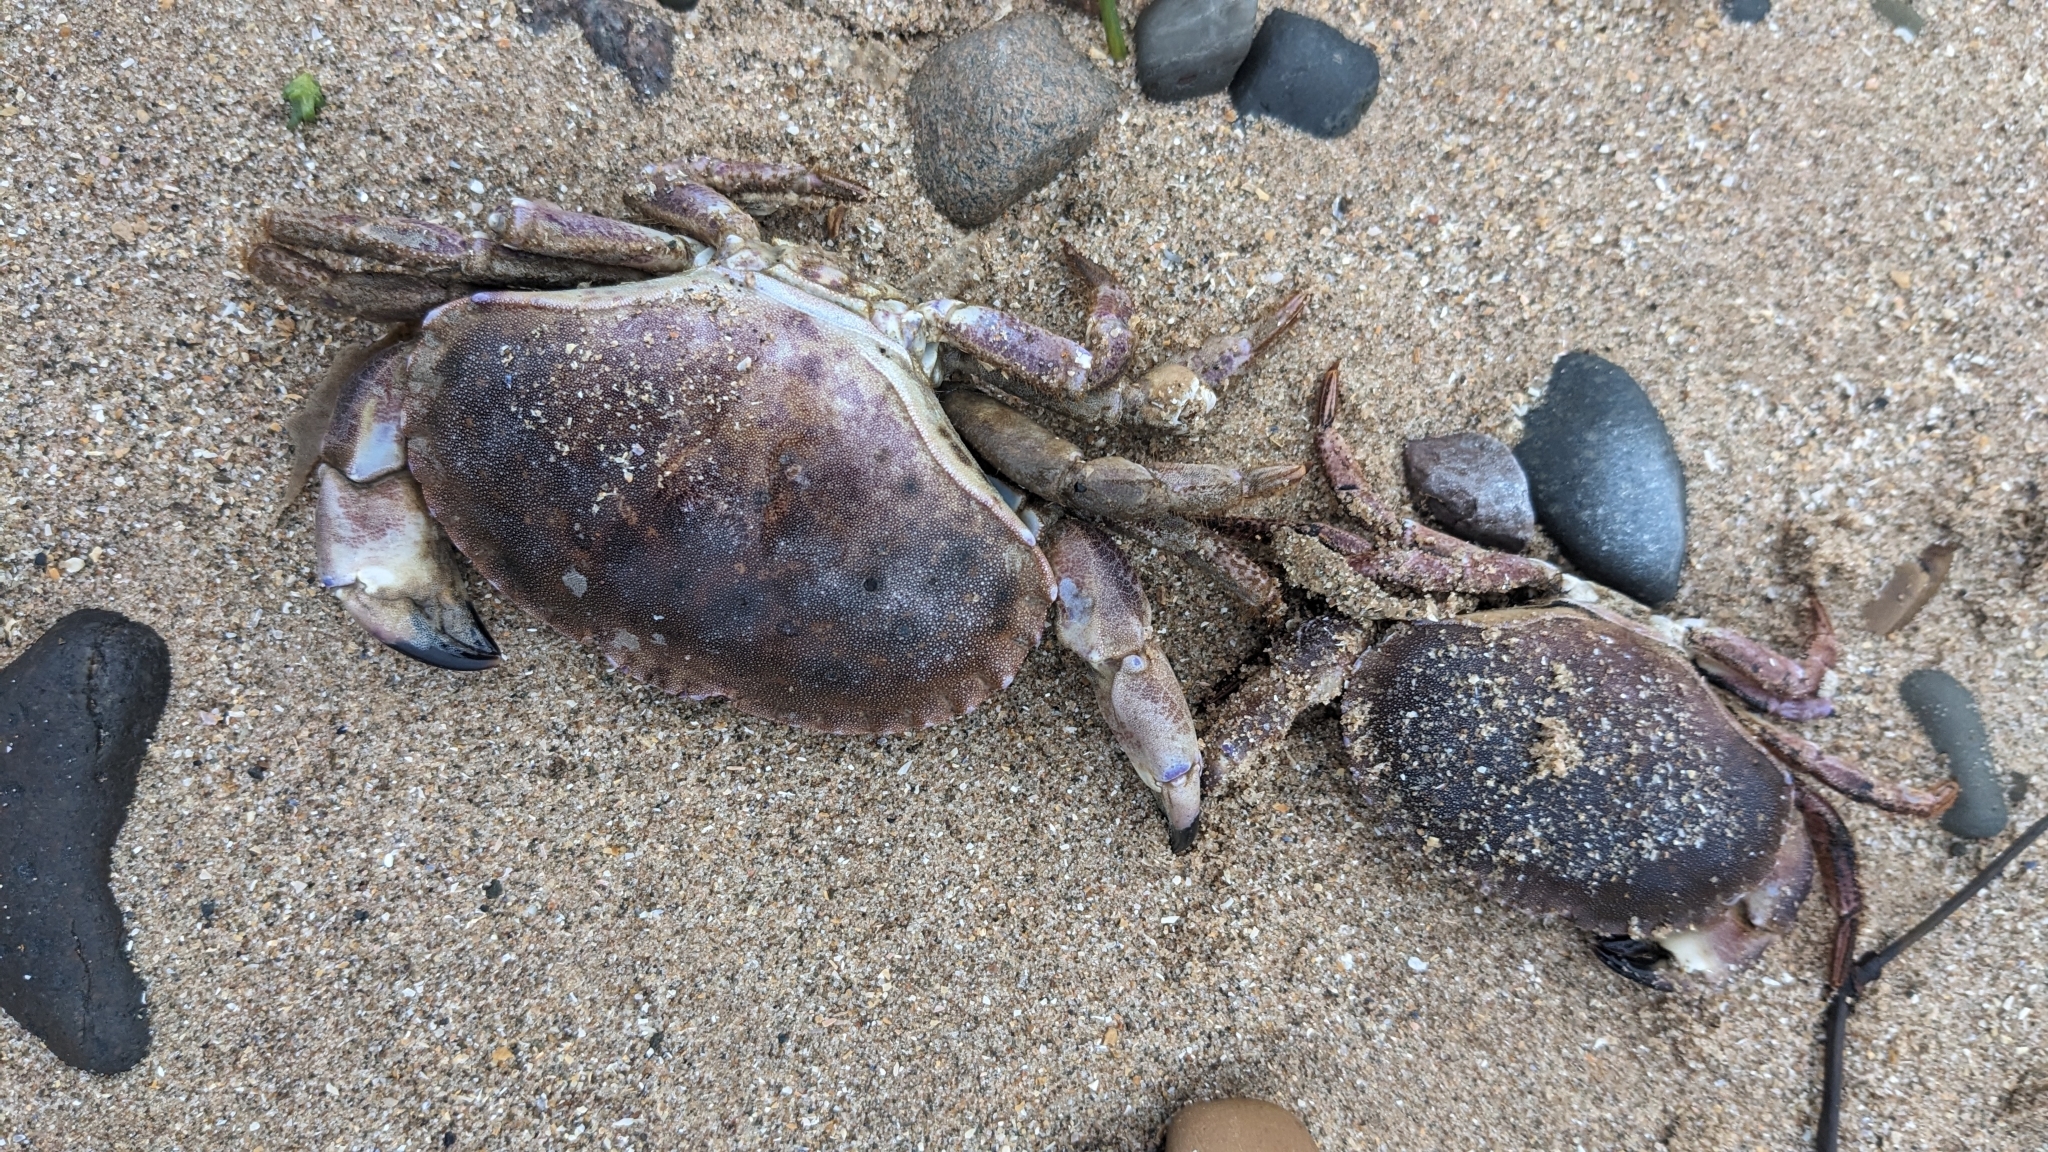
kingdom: Animalia
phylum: Arthropoda
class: Malacostraca
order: Decapoda
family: Cancridae
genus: Cancer
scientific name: Cancer pagurus
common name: Edible crab
